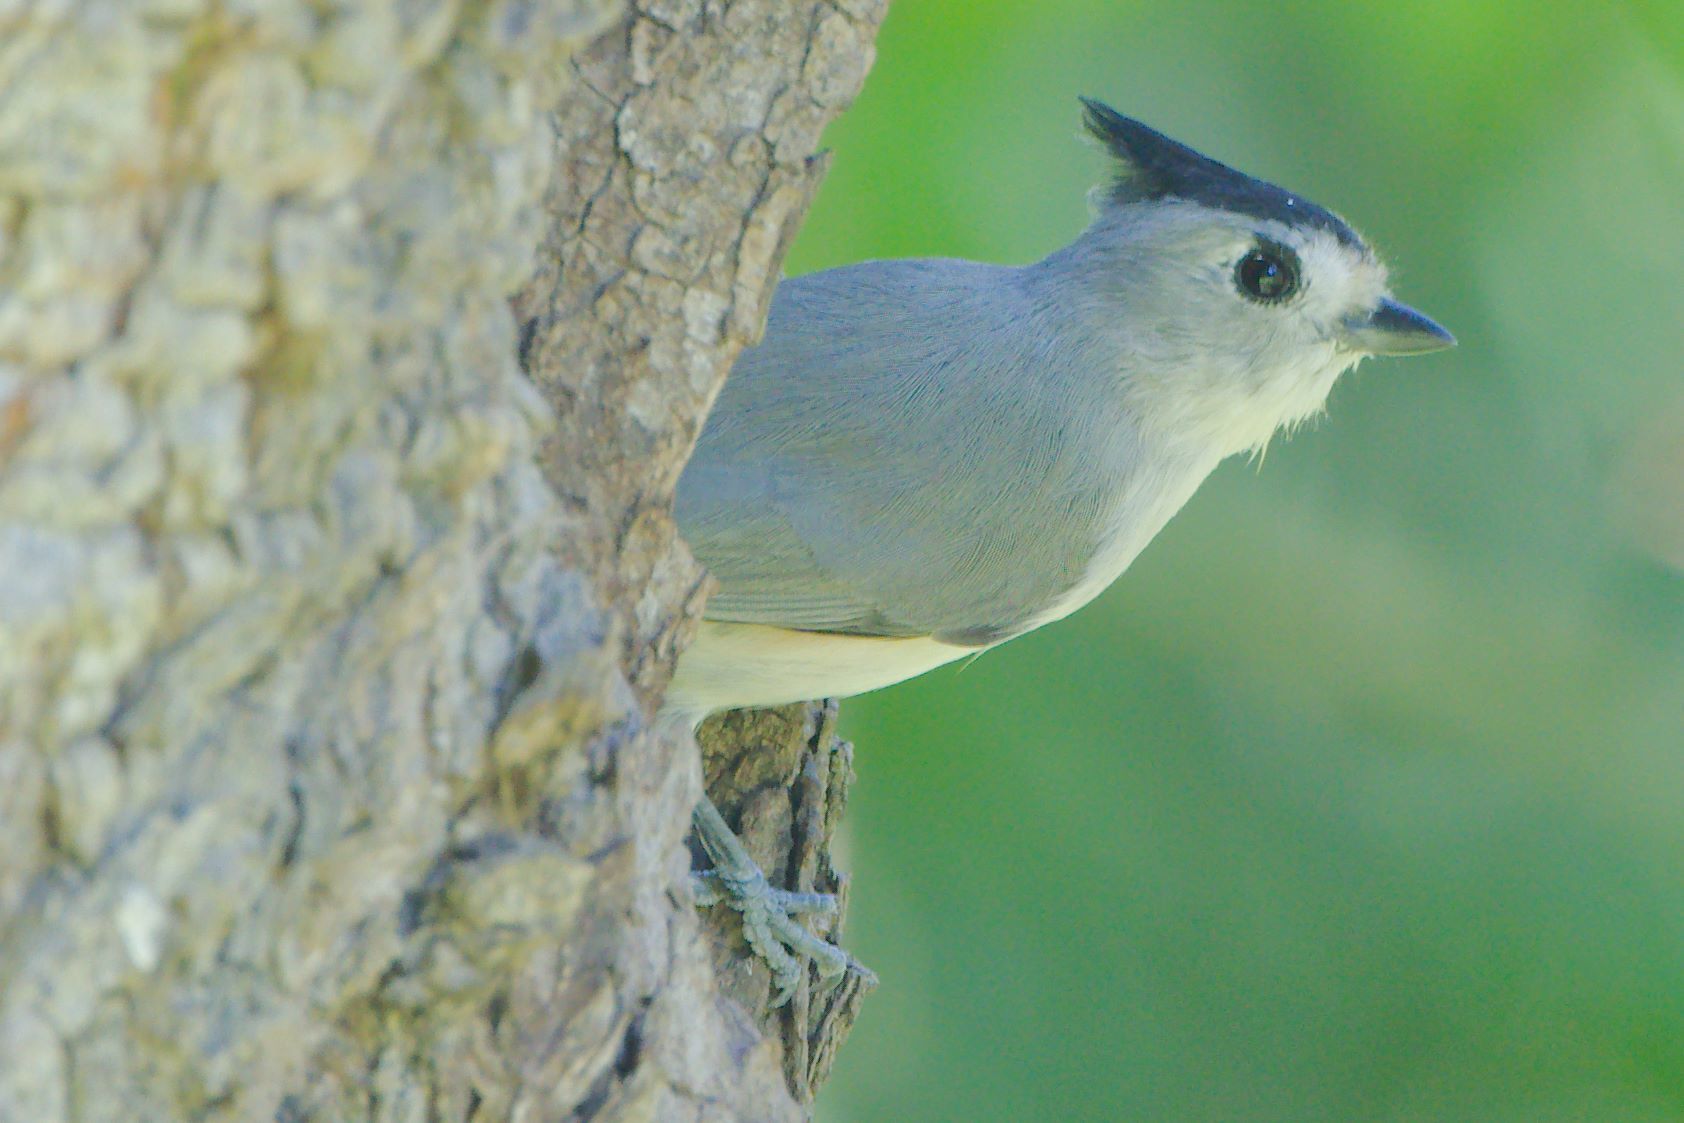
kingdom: Animalia
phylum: Chordata
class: Aves
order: Passeriformes
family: Paridae
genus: Baeolophus
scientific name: Baeolophus atricristatus
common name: Black-crested titmouse
